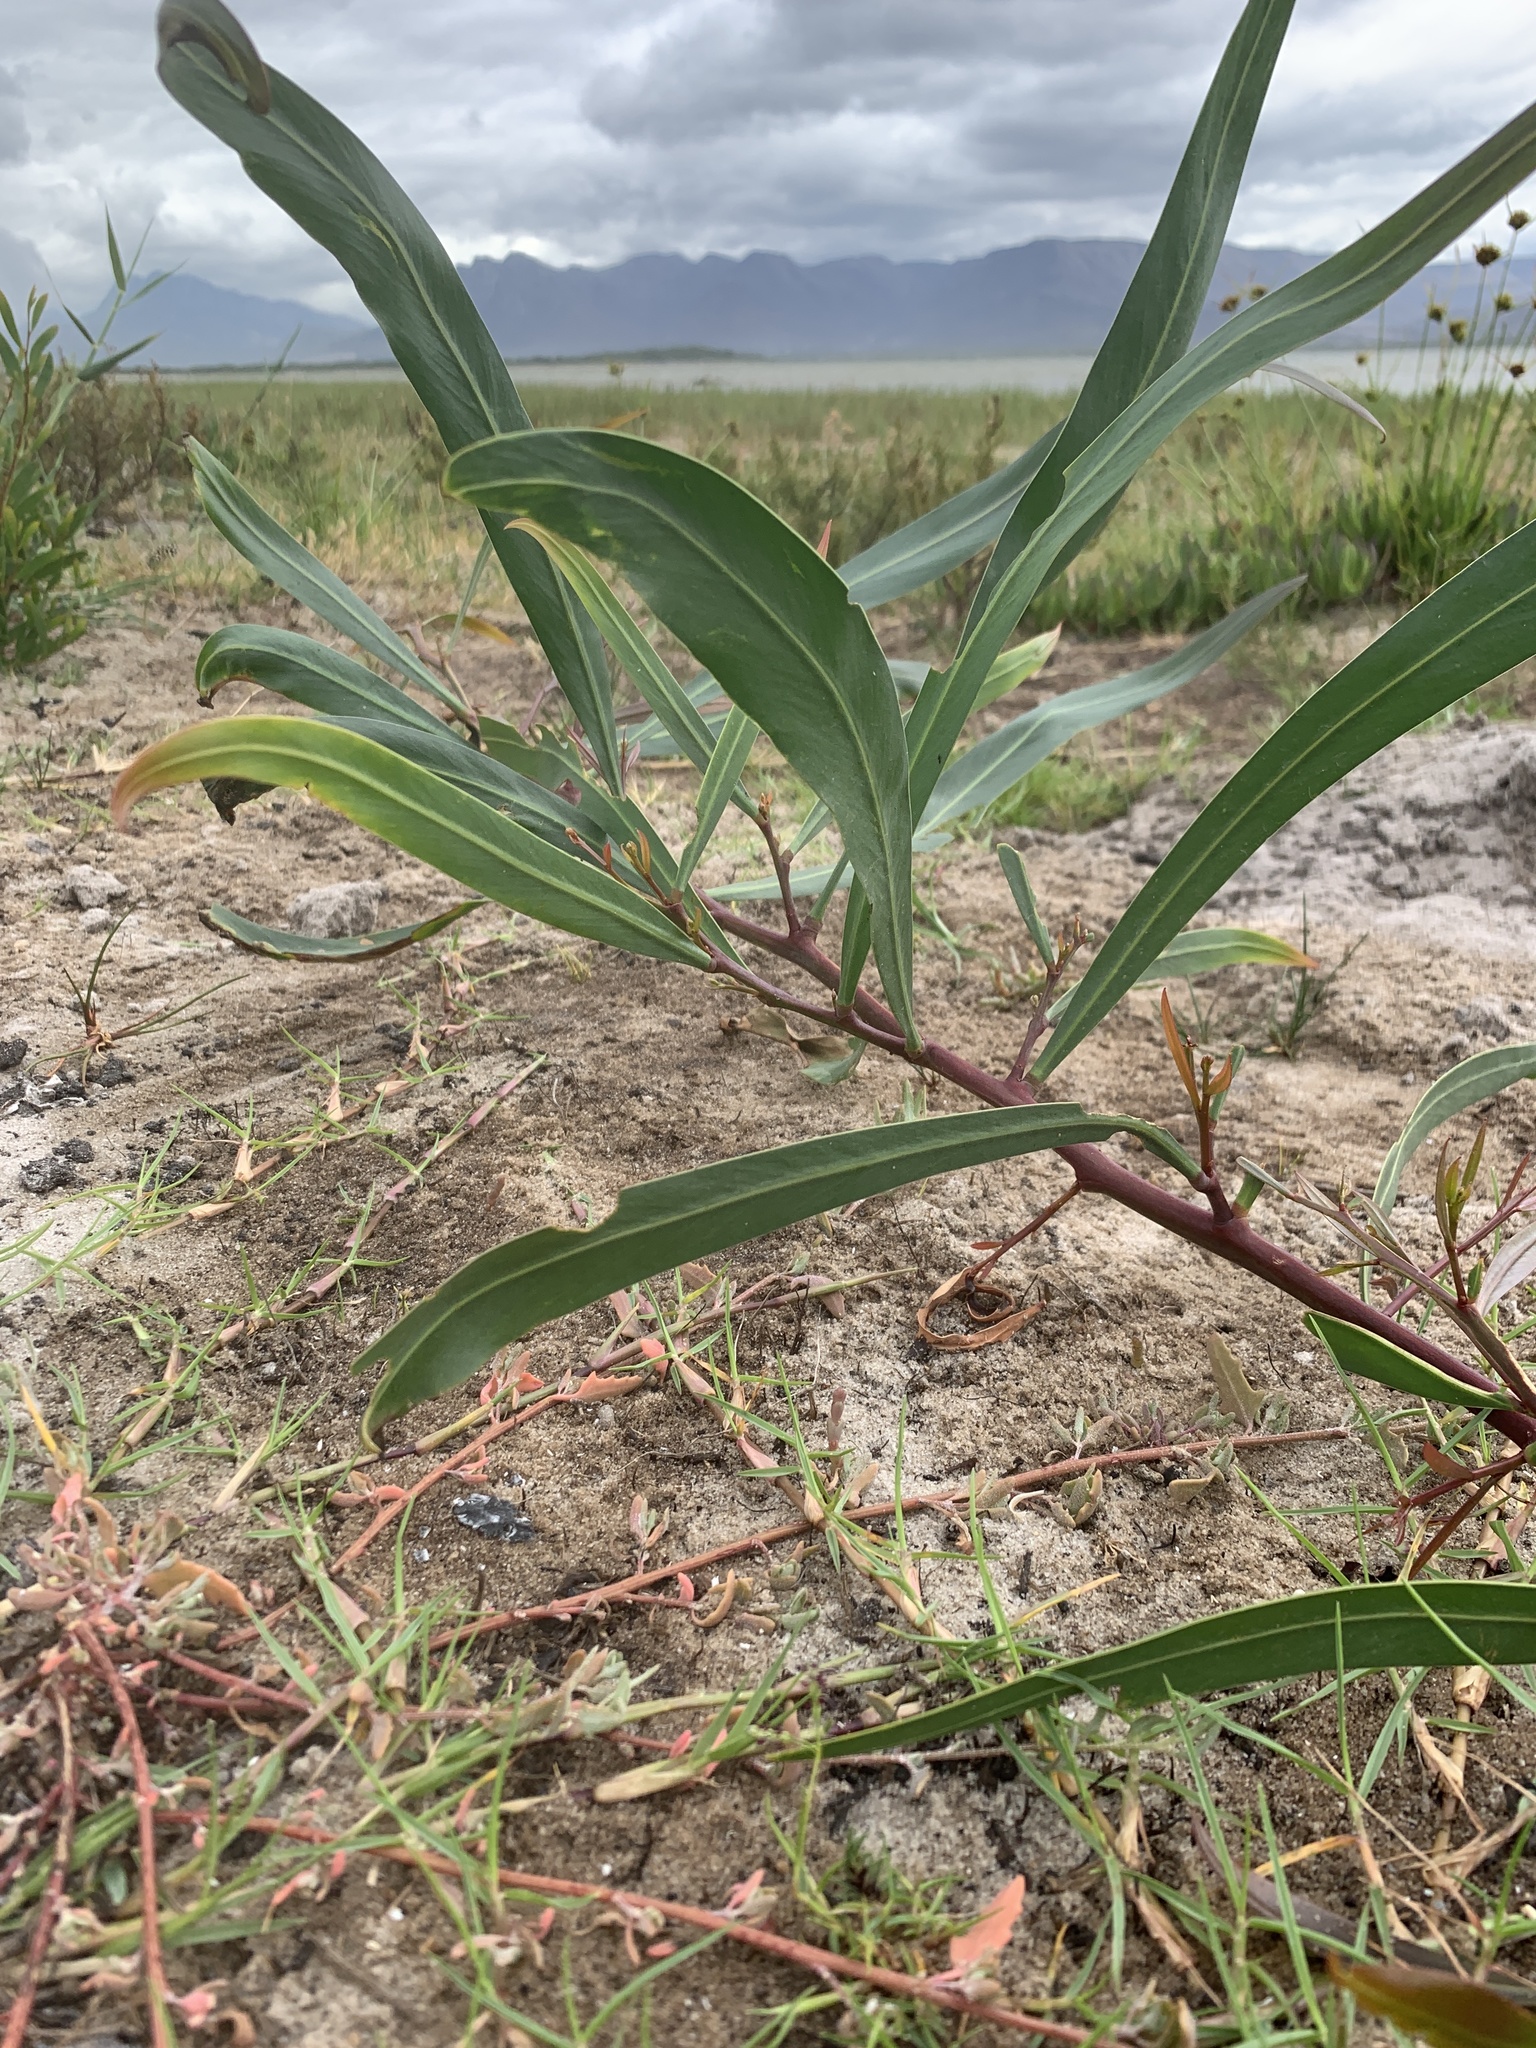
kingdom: Plantae
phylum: Tracheophyta
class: Magnoliopsida
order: Fabales
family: Fabaceae
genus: Acacia
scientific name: Acacia saligna
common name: Orange wattle
